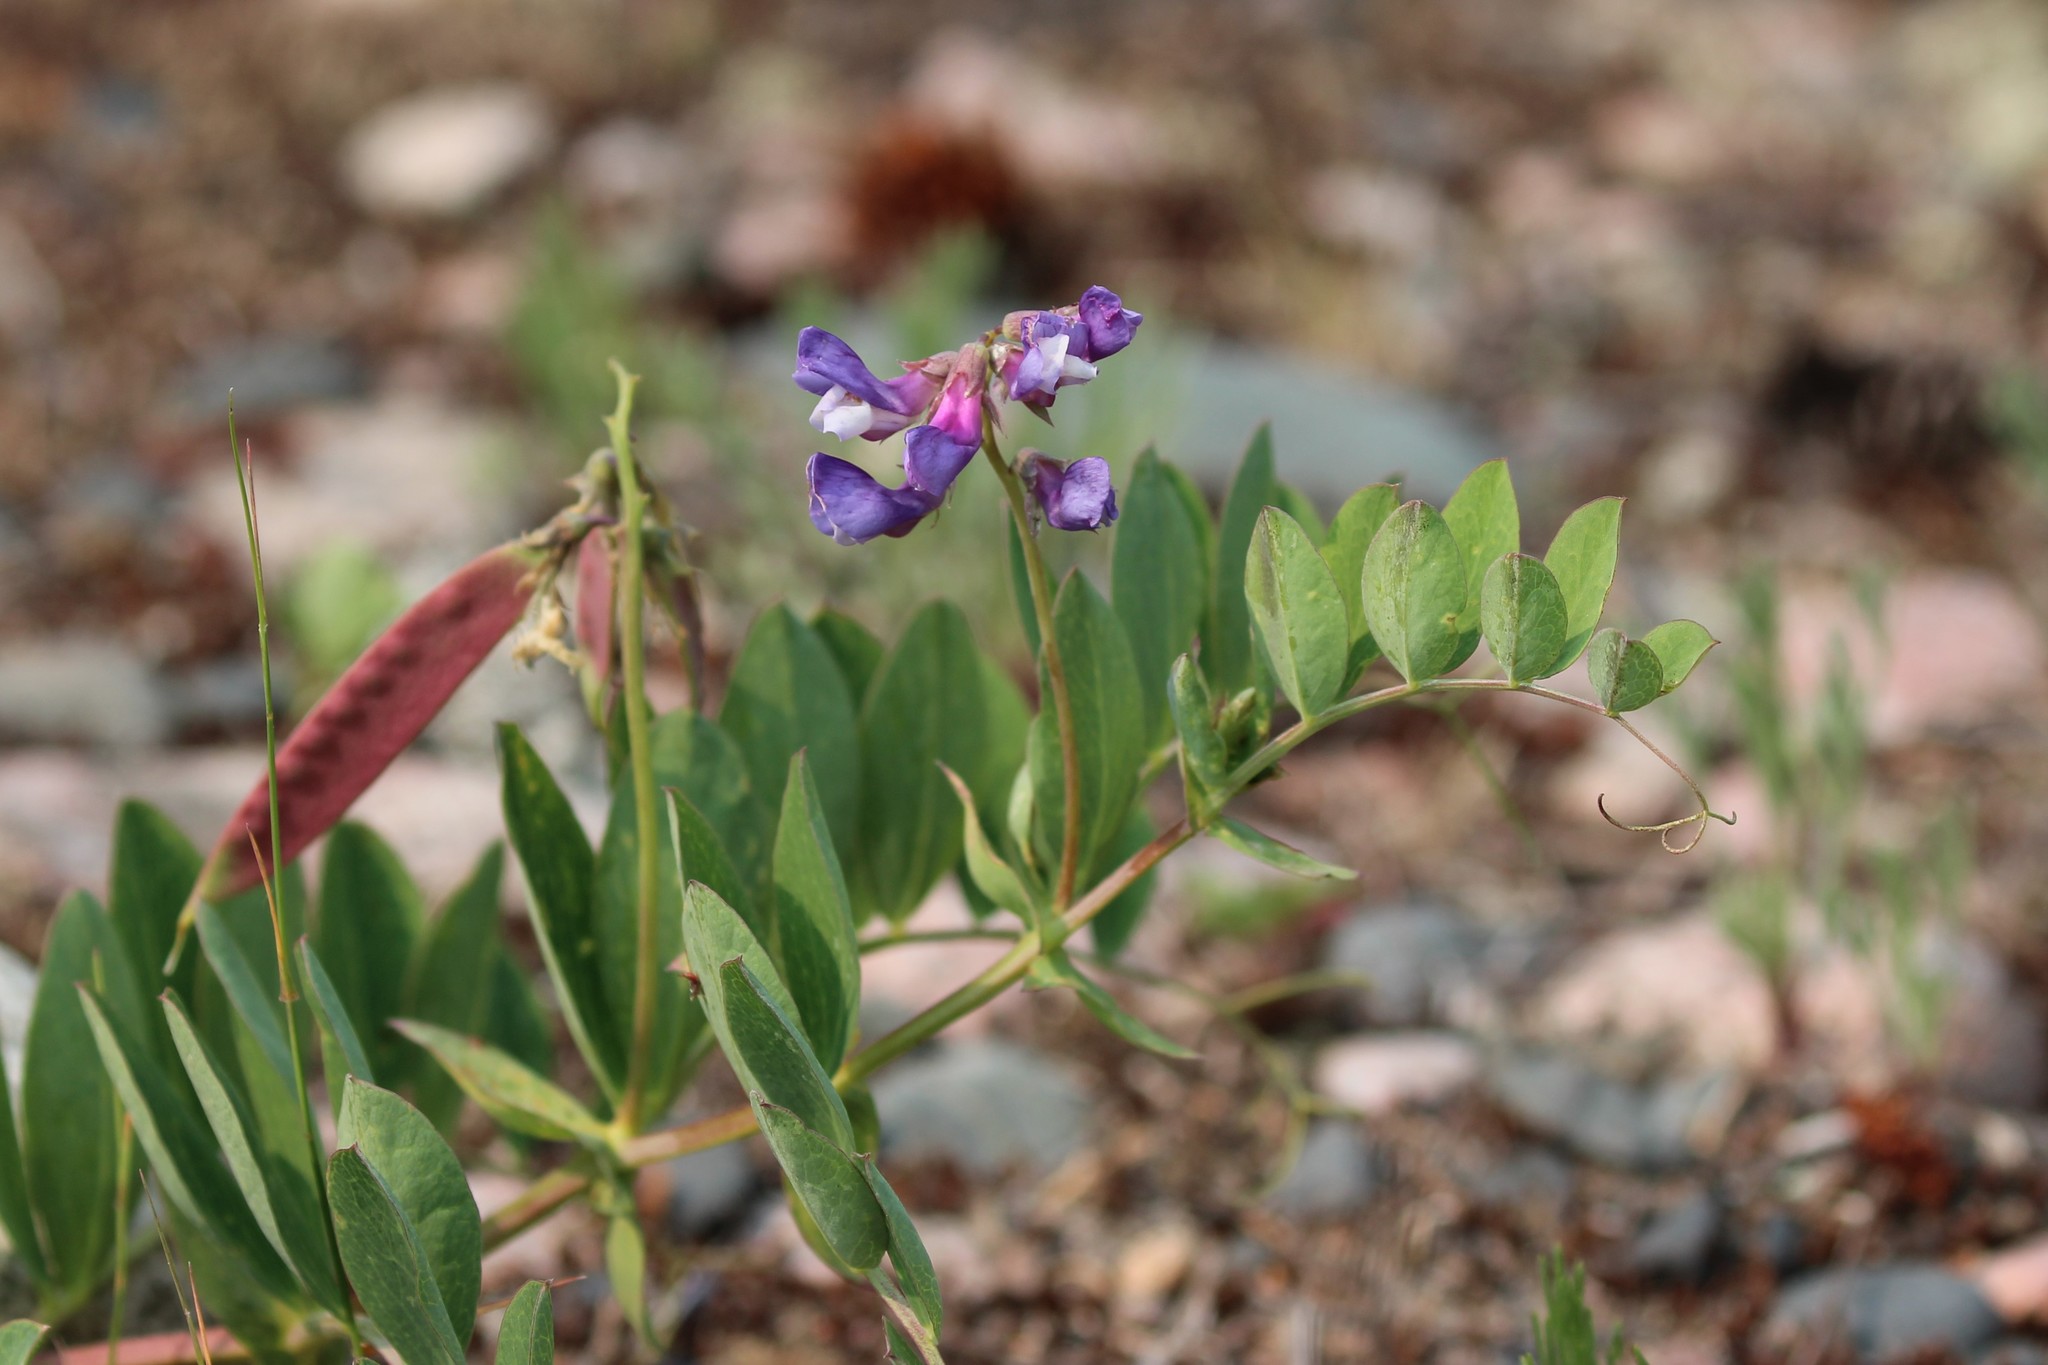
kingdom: Plantae
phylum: Tracheophyta
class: Magnoliopsida
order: Fabales
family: Fabaceae
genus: Lathyrus
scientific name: Lathyrus japonicus
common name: Sea pea
